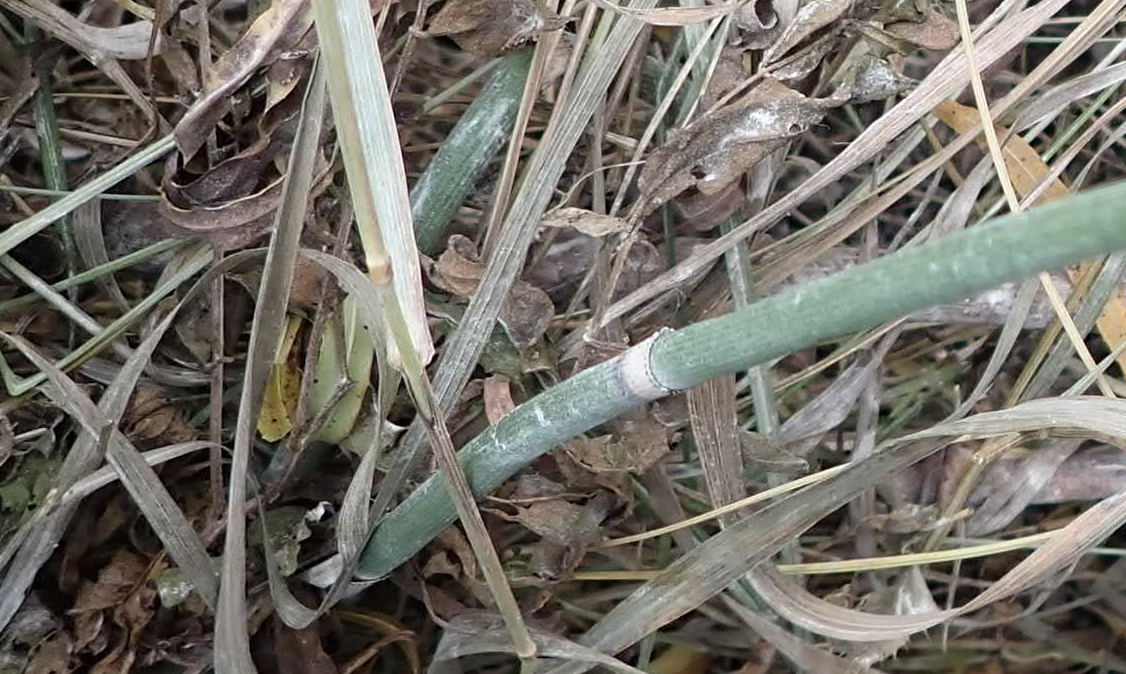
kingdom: Plantae
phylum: Tracheophyta
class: Polypodiopsida
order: Equisetales
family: Equisetaceae
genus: Equisetum
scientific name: Equisetum praealtum
